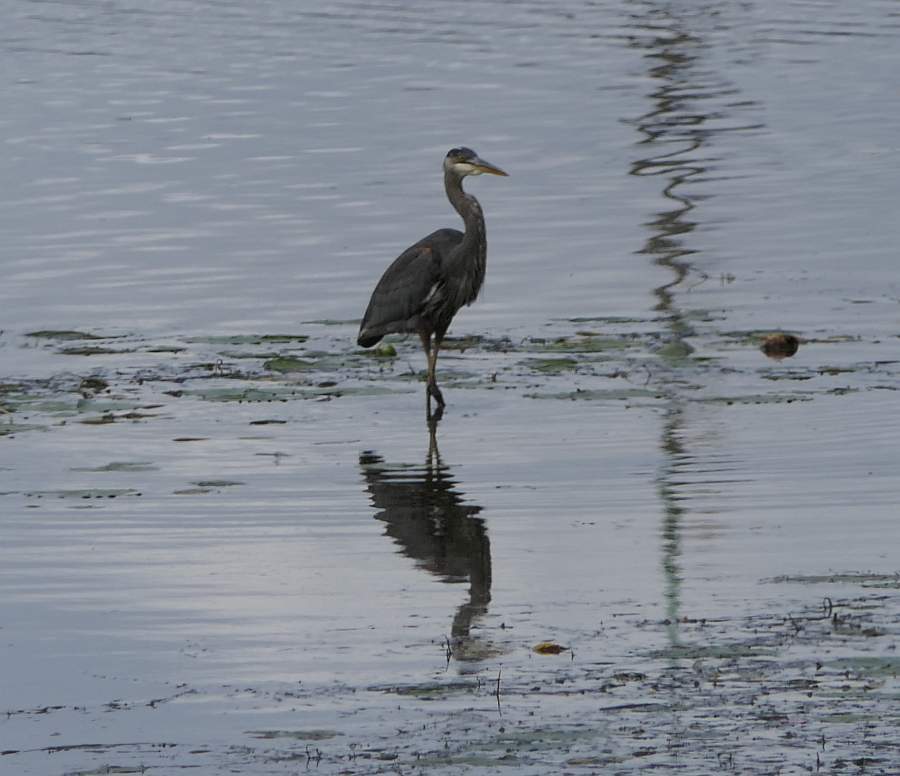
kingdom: Animalia
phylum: Chordata
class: Aves
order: Pelecaniformes
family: Ardeidae
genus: Ardea
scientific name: Ardea herodias
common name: Great blue heron
